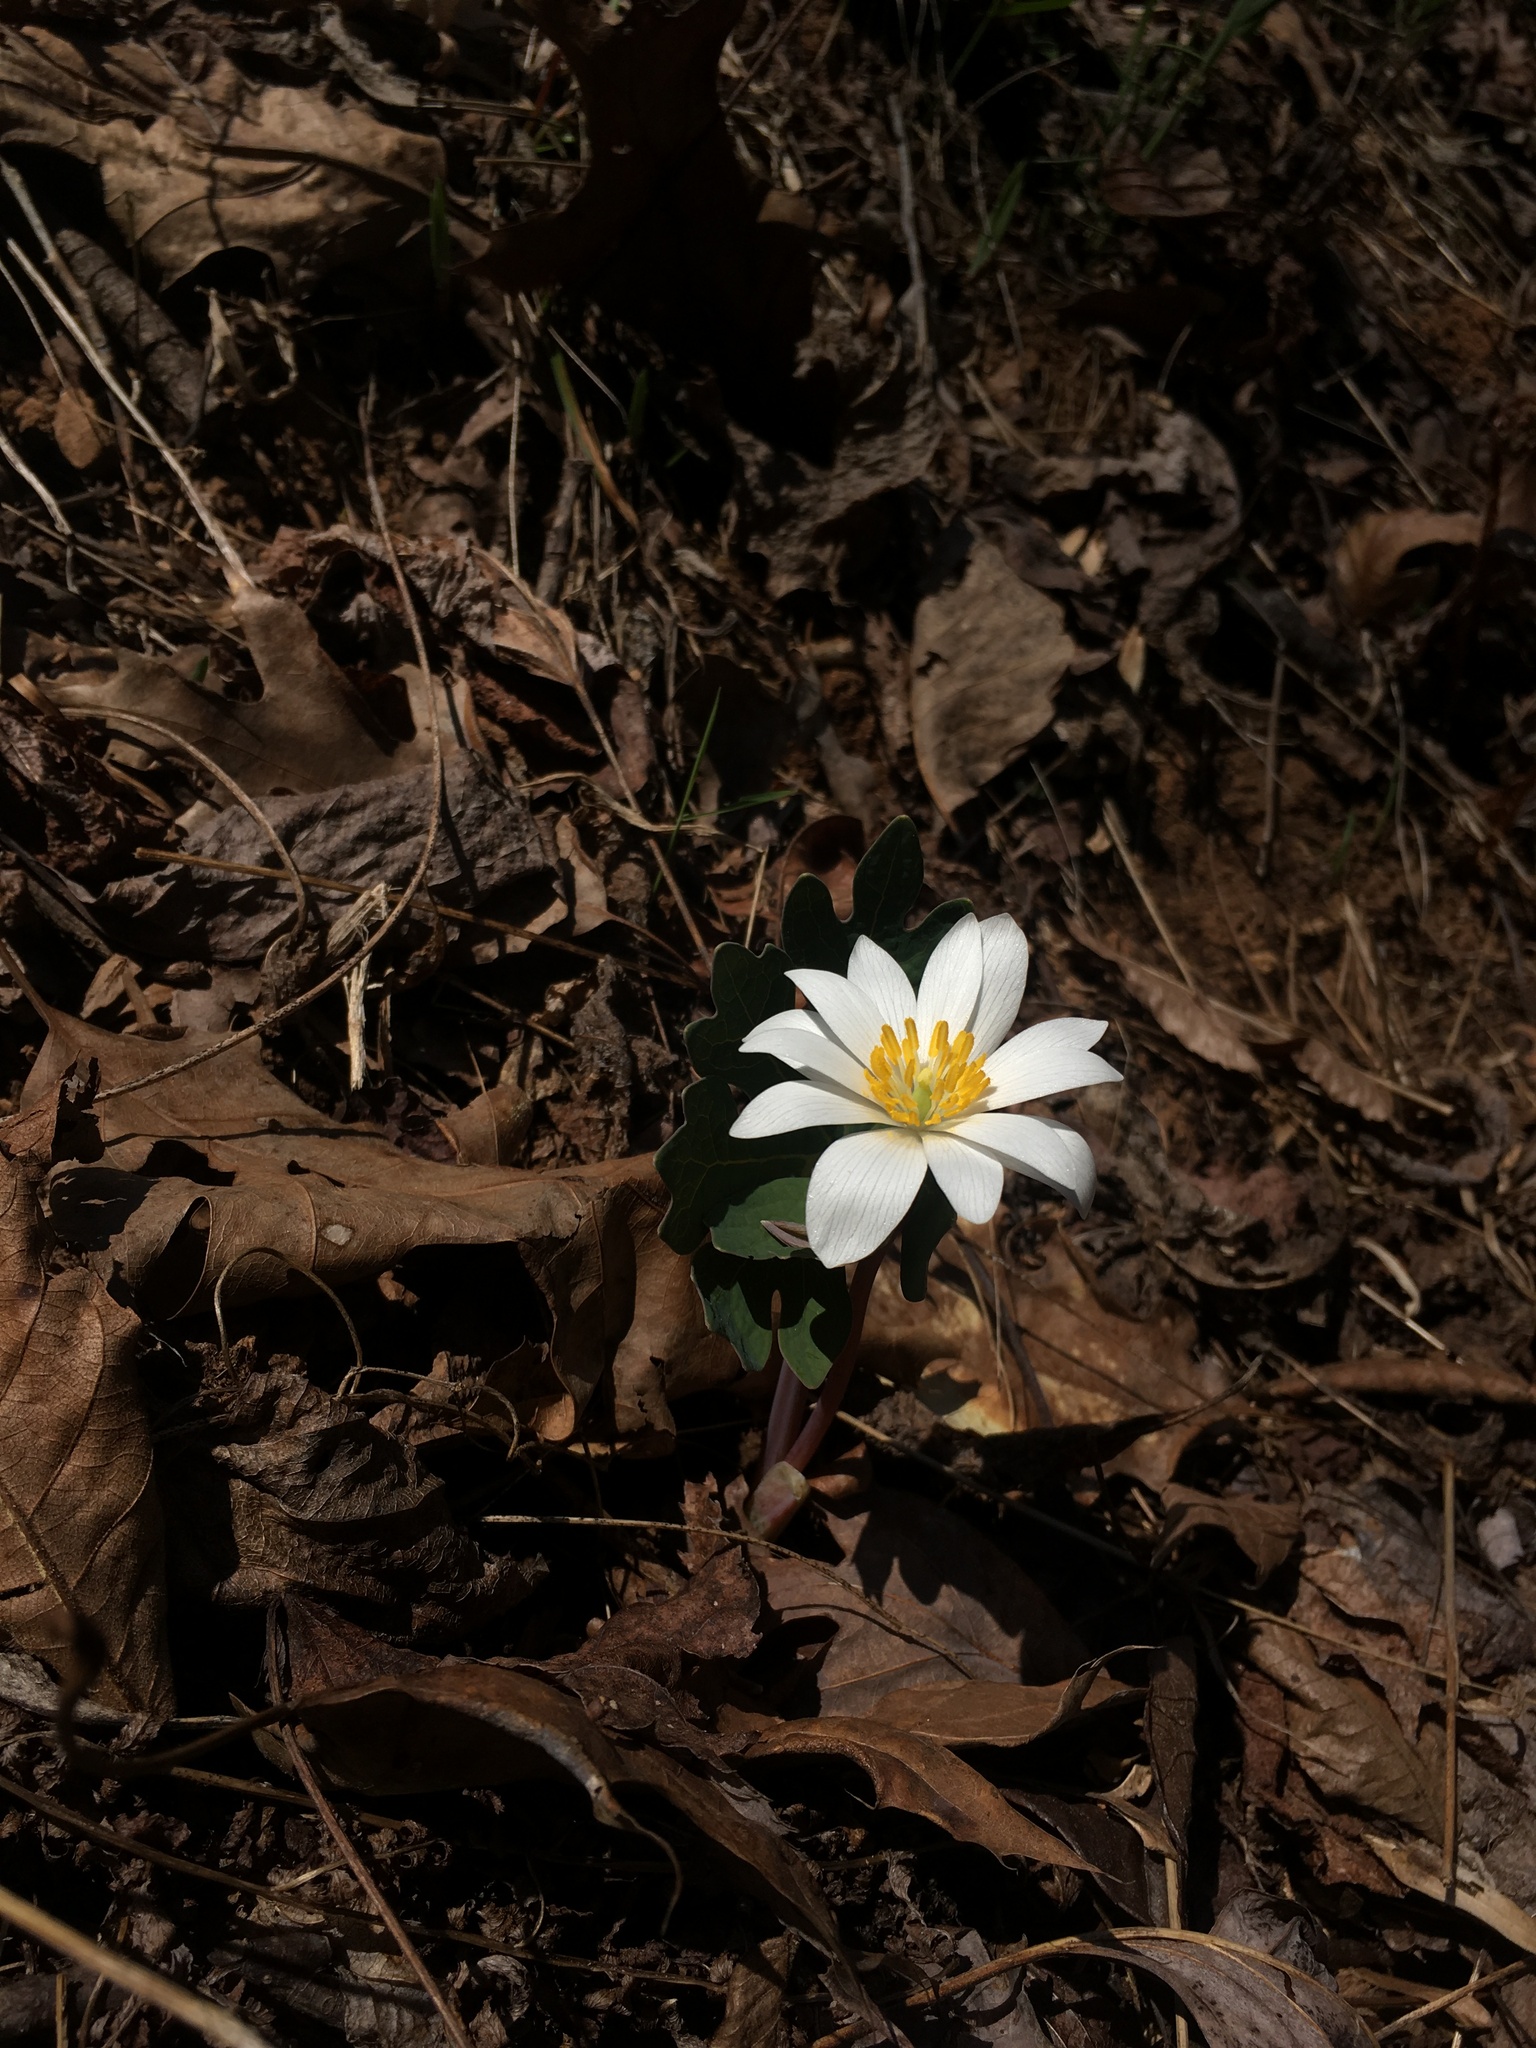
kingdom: Plantae
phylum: Tracheophyta
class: Magnoliopsida
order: Ranunculales
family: Papaveraceae
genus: Sanguinaria
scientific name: Sanguinaria canadensis
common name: Bloodroot
